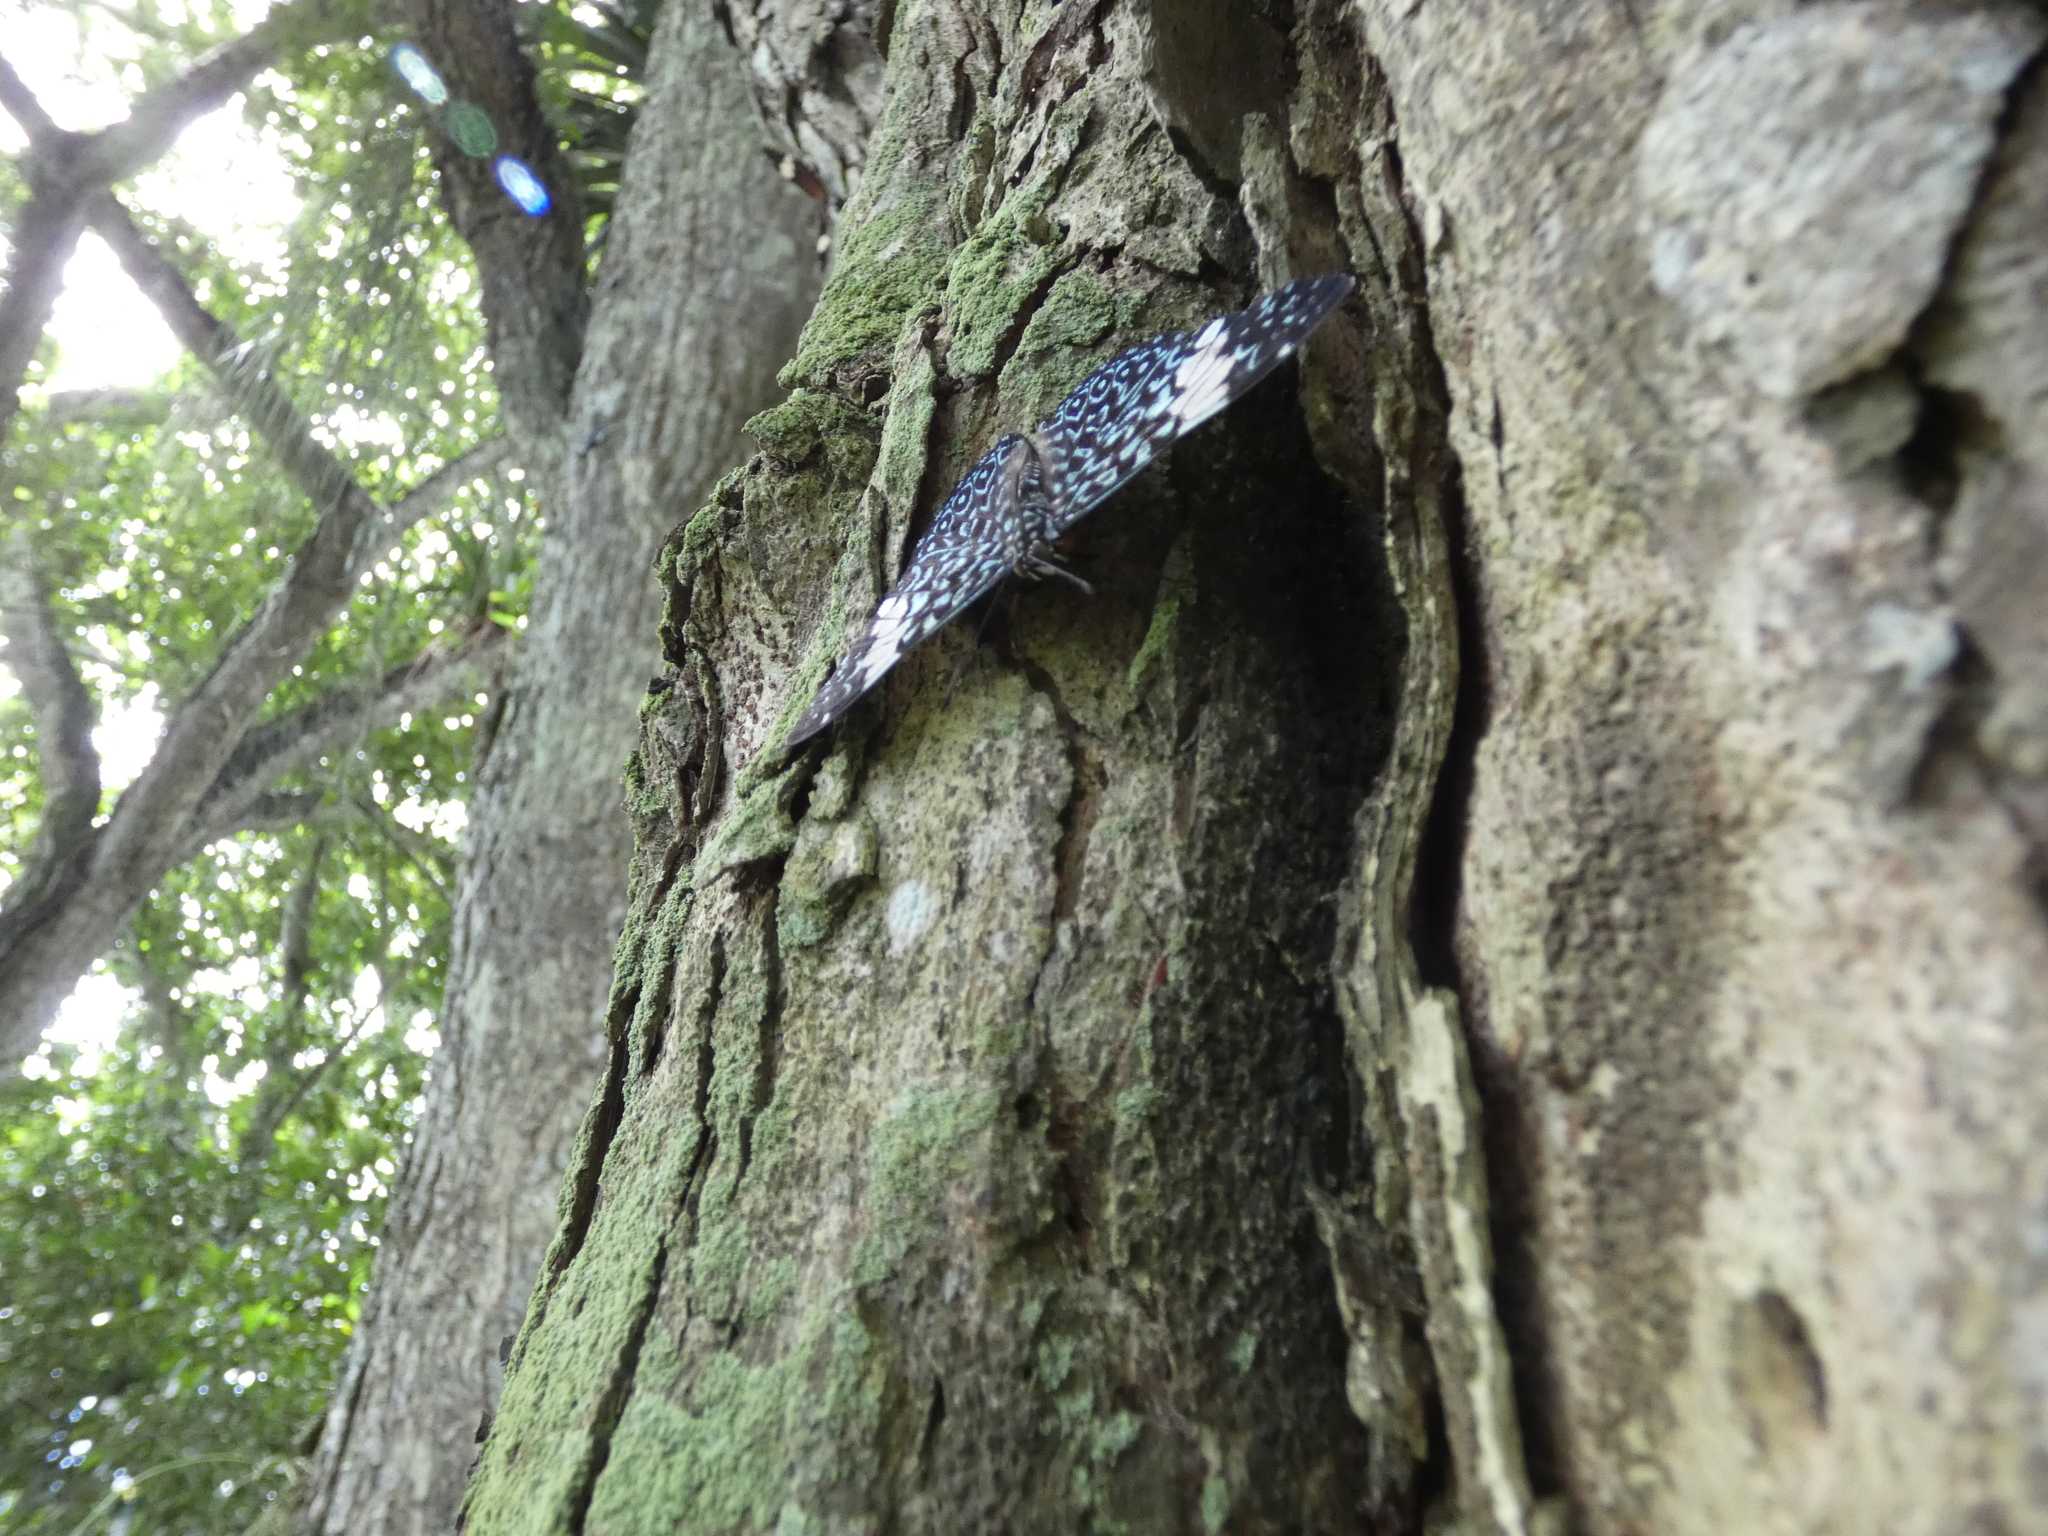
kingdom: Animalia
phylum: Arthropoda
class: Insecta
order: Lepidoptera
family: Nymphalidae
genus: Hamadryas
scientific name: Hamadryas amphinome
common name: Red cracker
